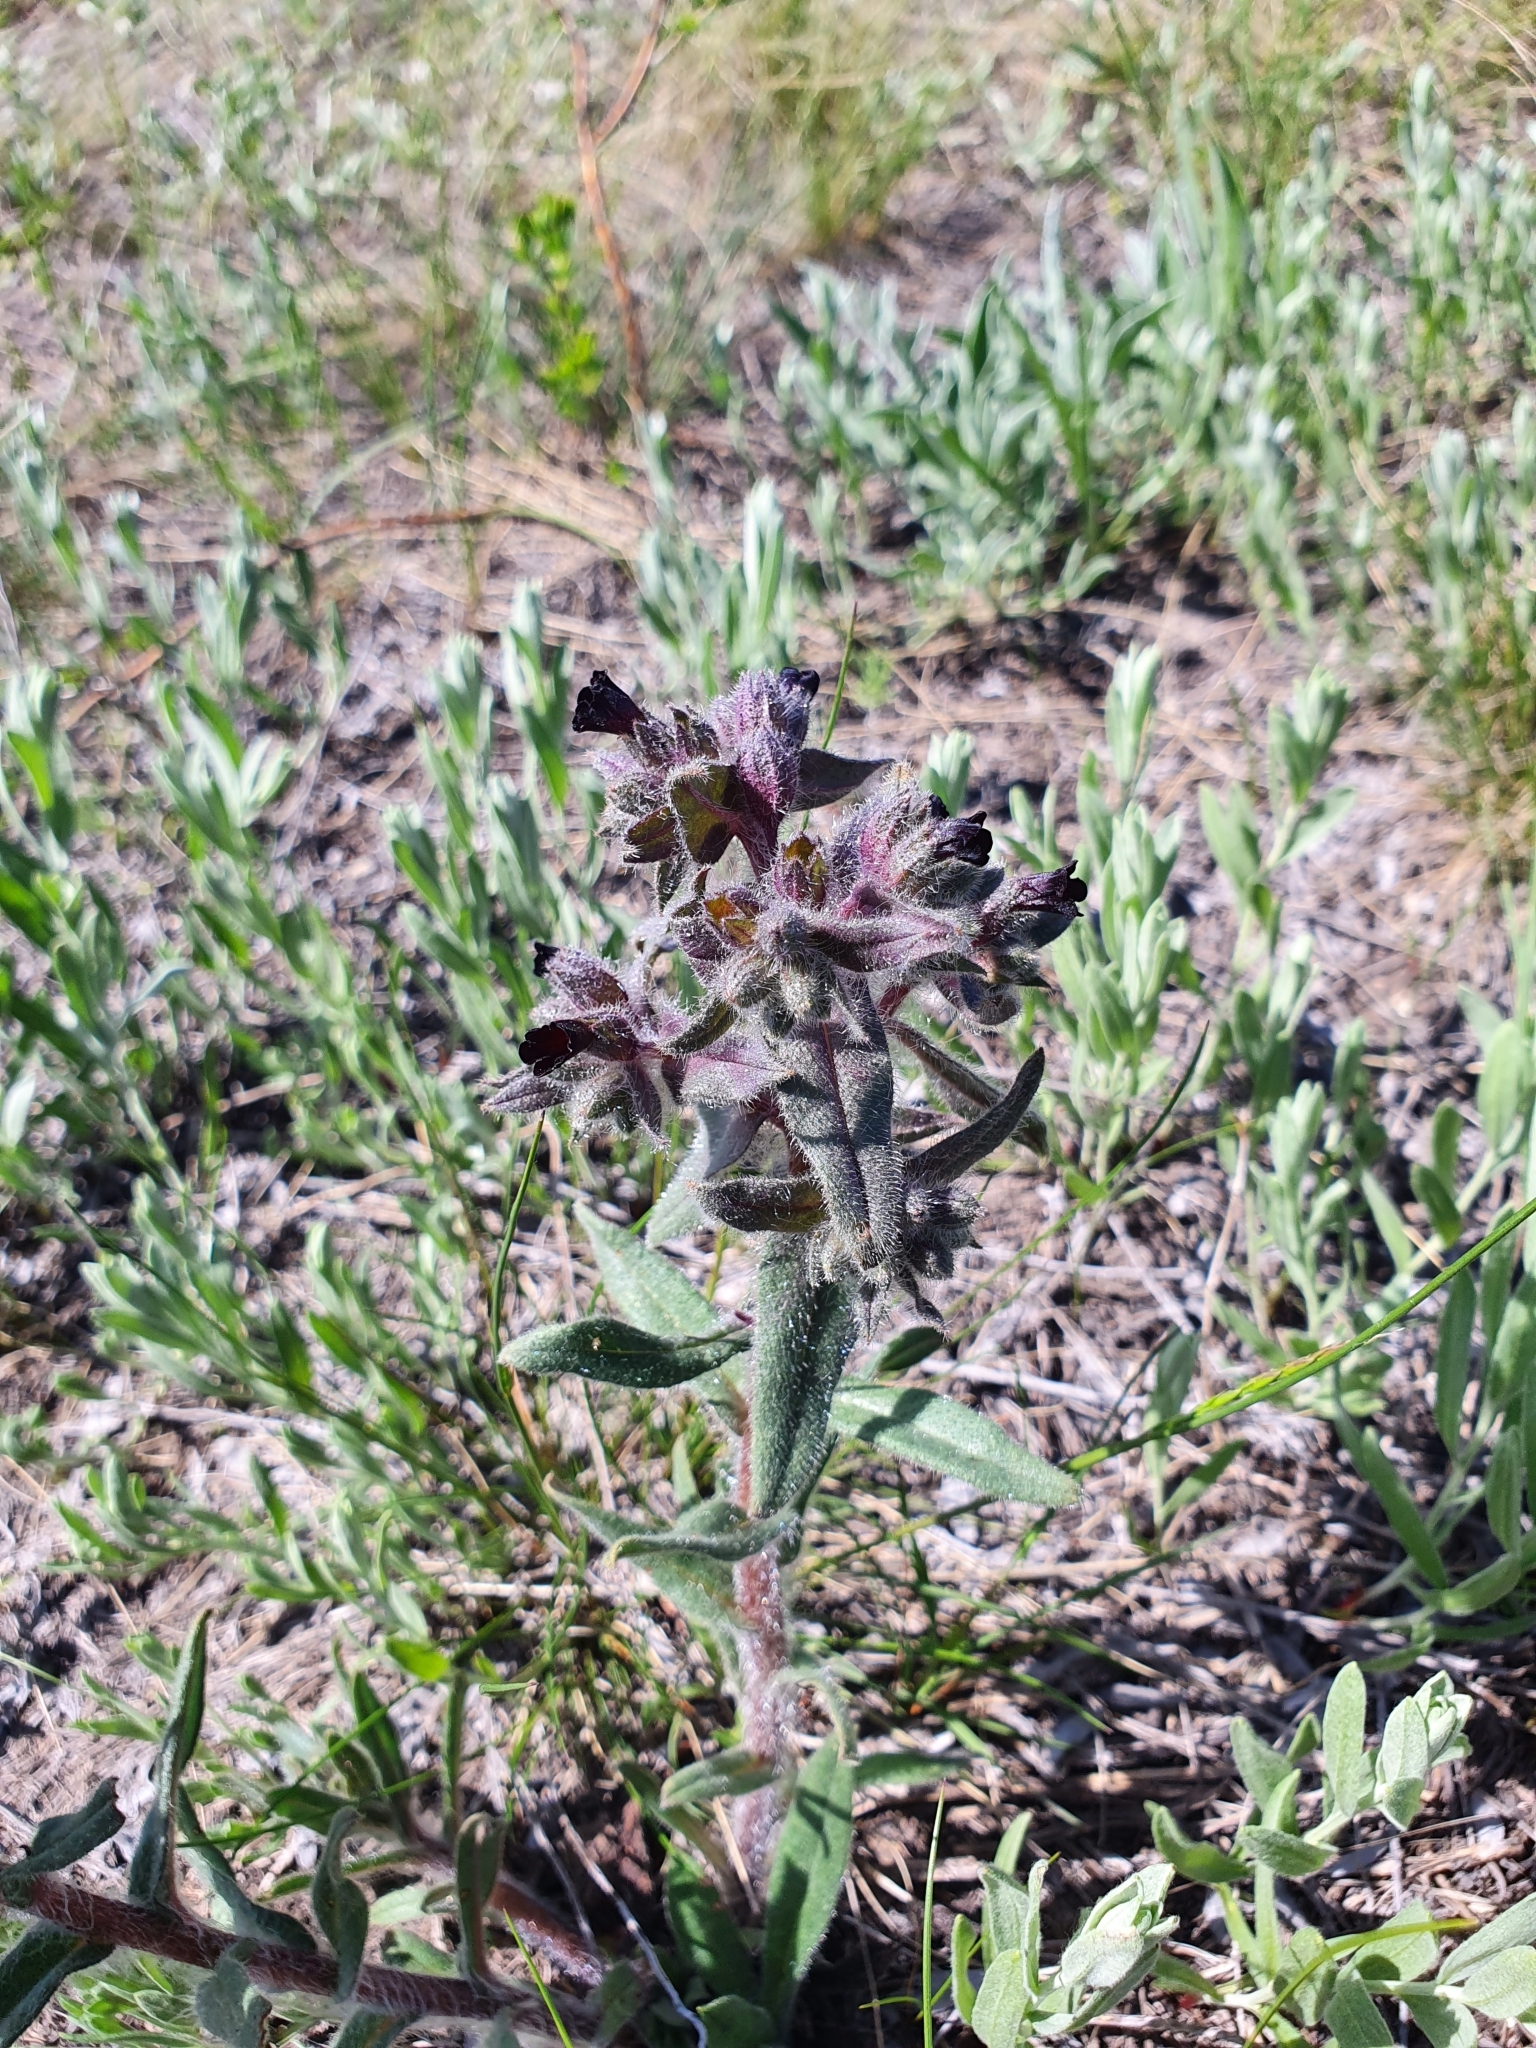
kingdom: Plantae
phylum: Tracheophyta
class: Magnoliopsida
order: Boraginales
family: Boraginaceae
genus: Nonea
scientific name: Nonea pulla
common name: Brown nonea
